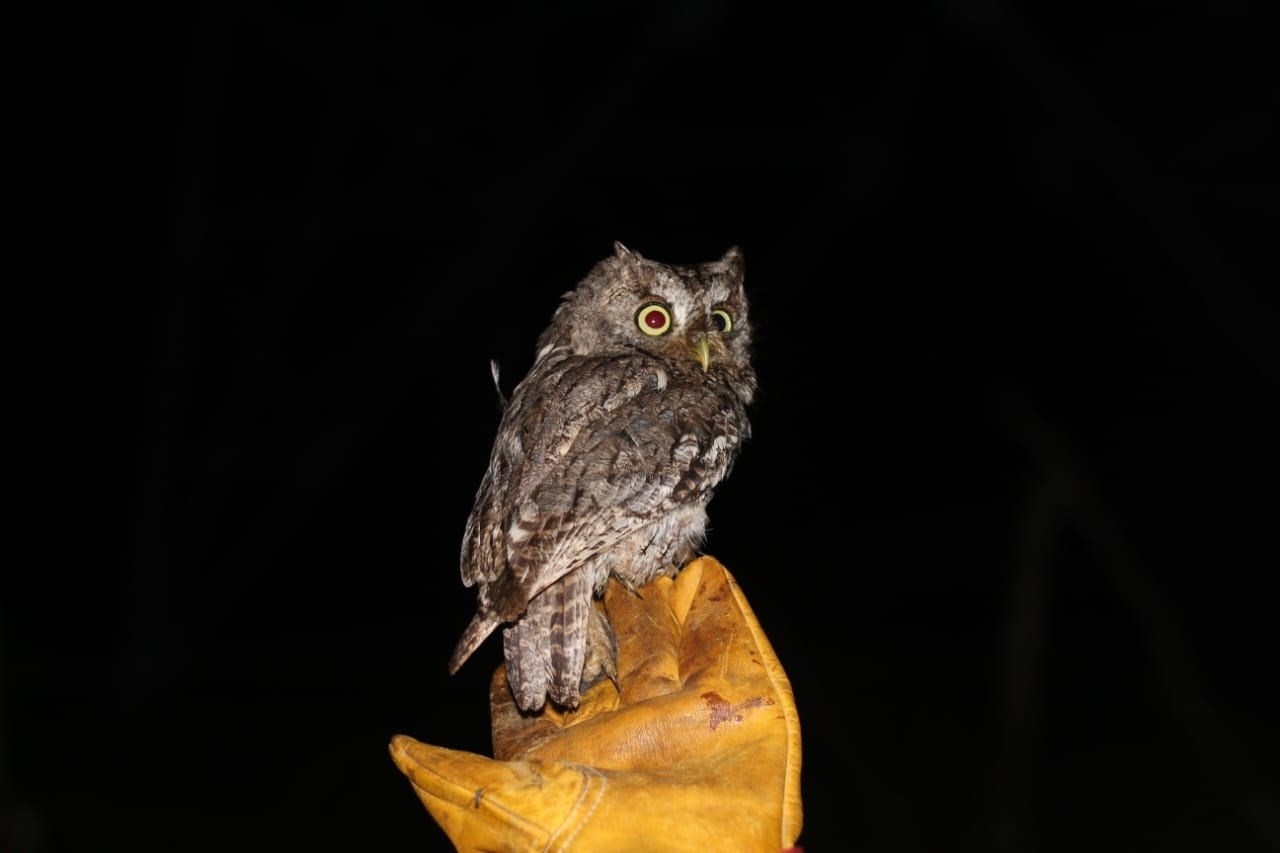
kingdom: Animalia
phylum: Chordata
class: Aves
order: Strigiformes
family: Strigidae
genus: Megascops
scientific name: Megascops asio
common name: Eastern screech-owl
